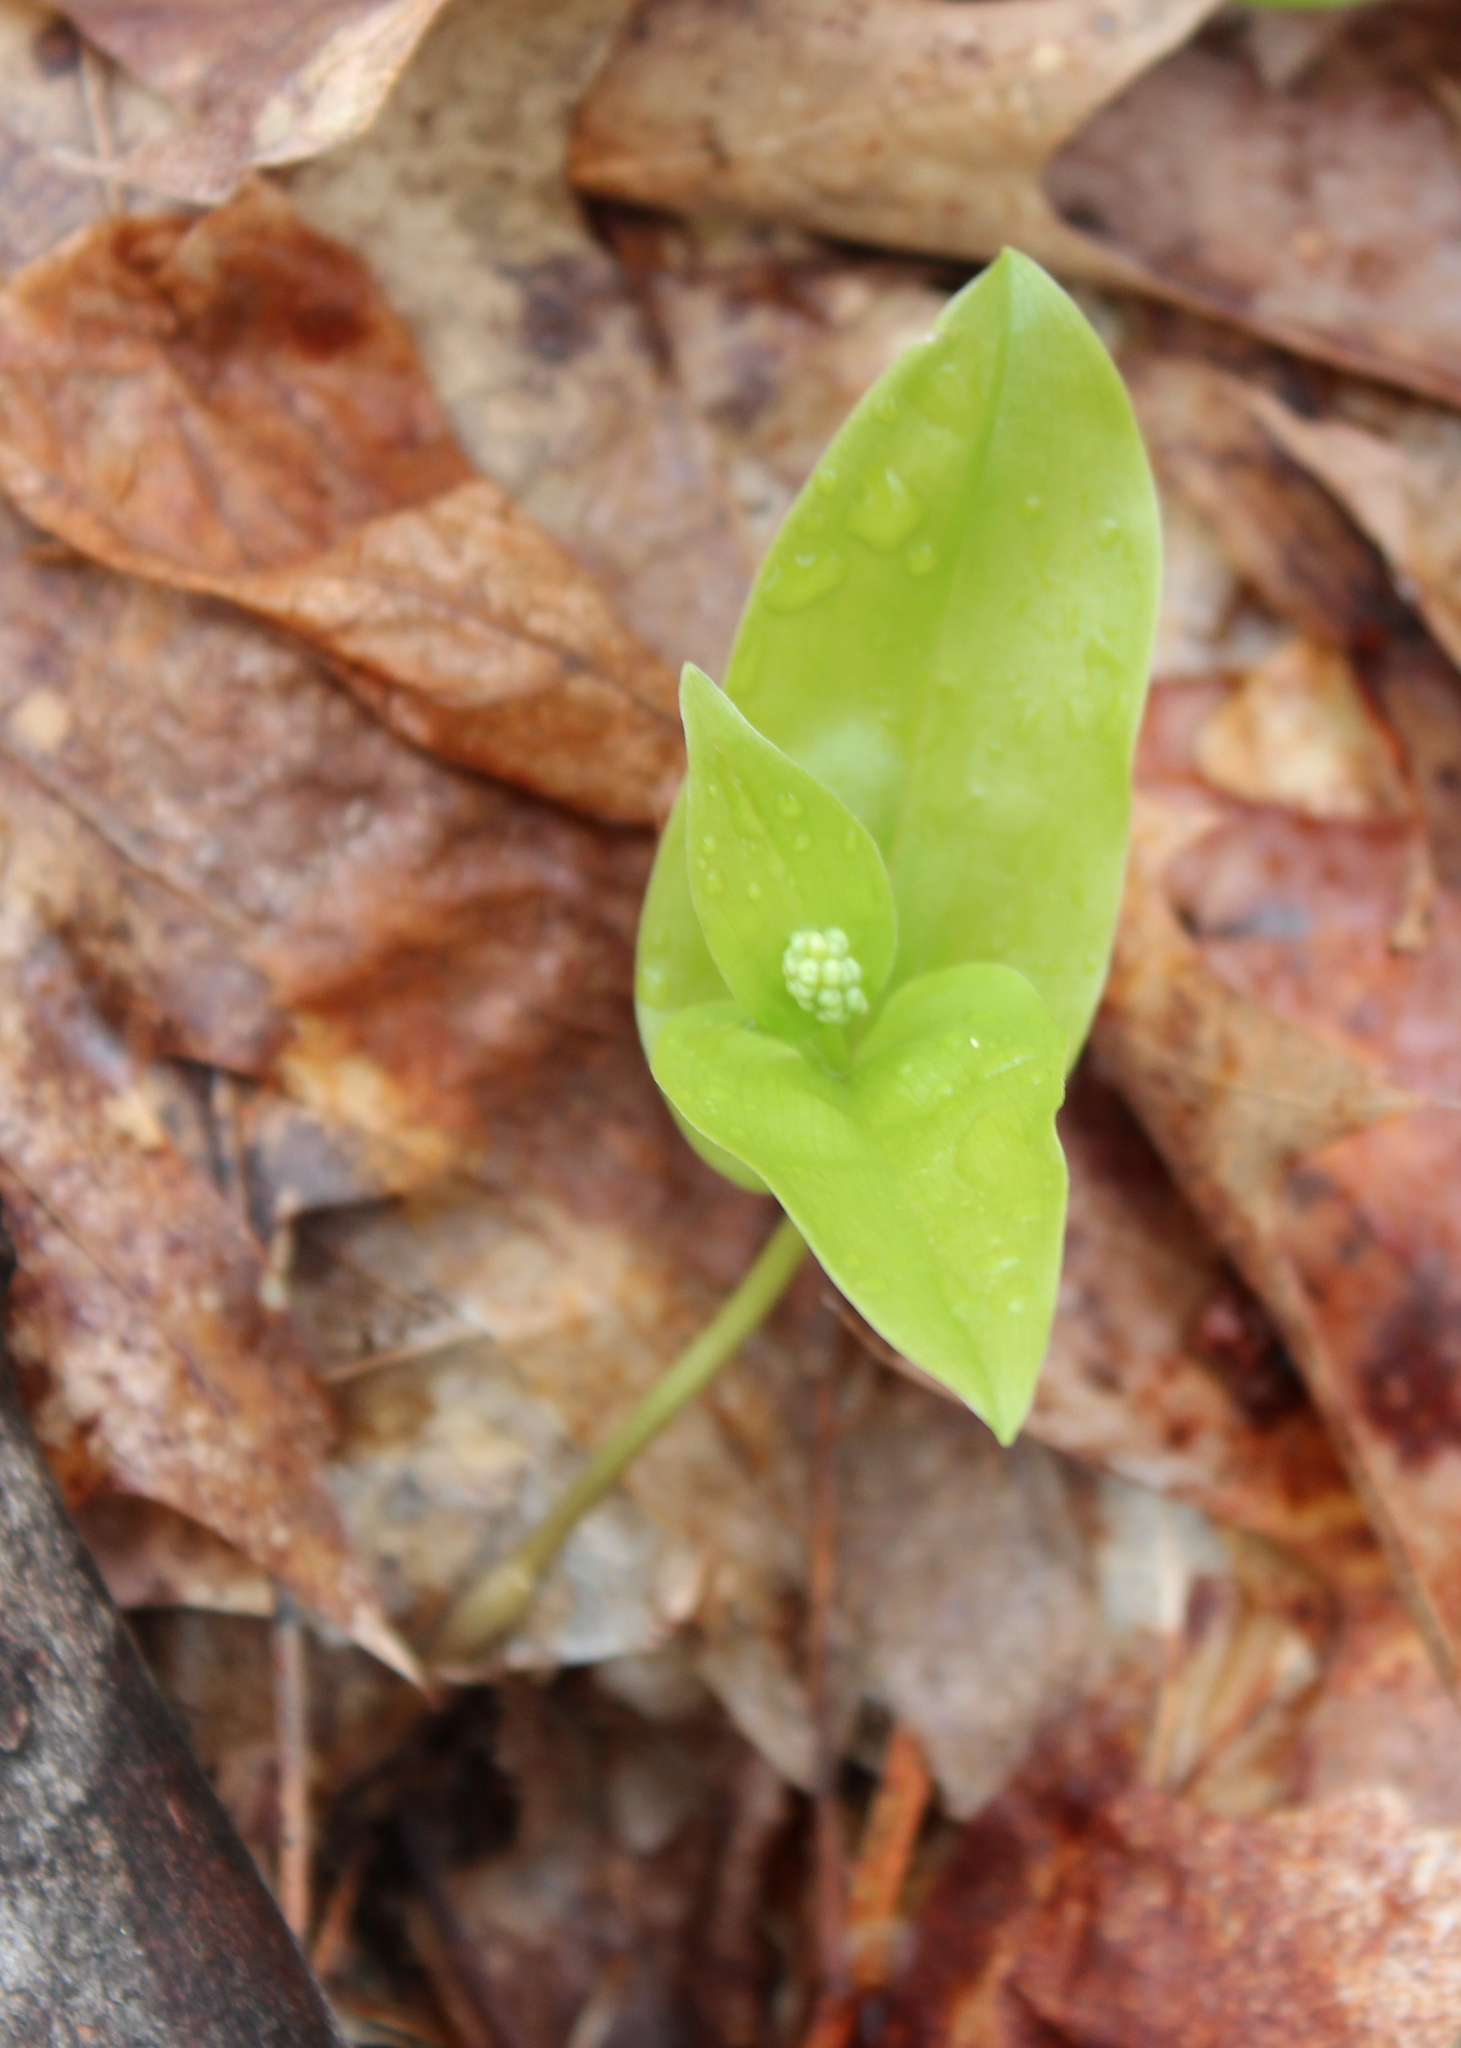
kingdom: Plantae
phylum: Tracheophyta
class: Liliopsida
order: Asparagales
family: Asparagaceae
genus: Maianthemum
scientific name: Maianthemum canadense
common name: False lily-of-the-valley
